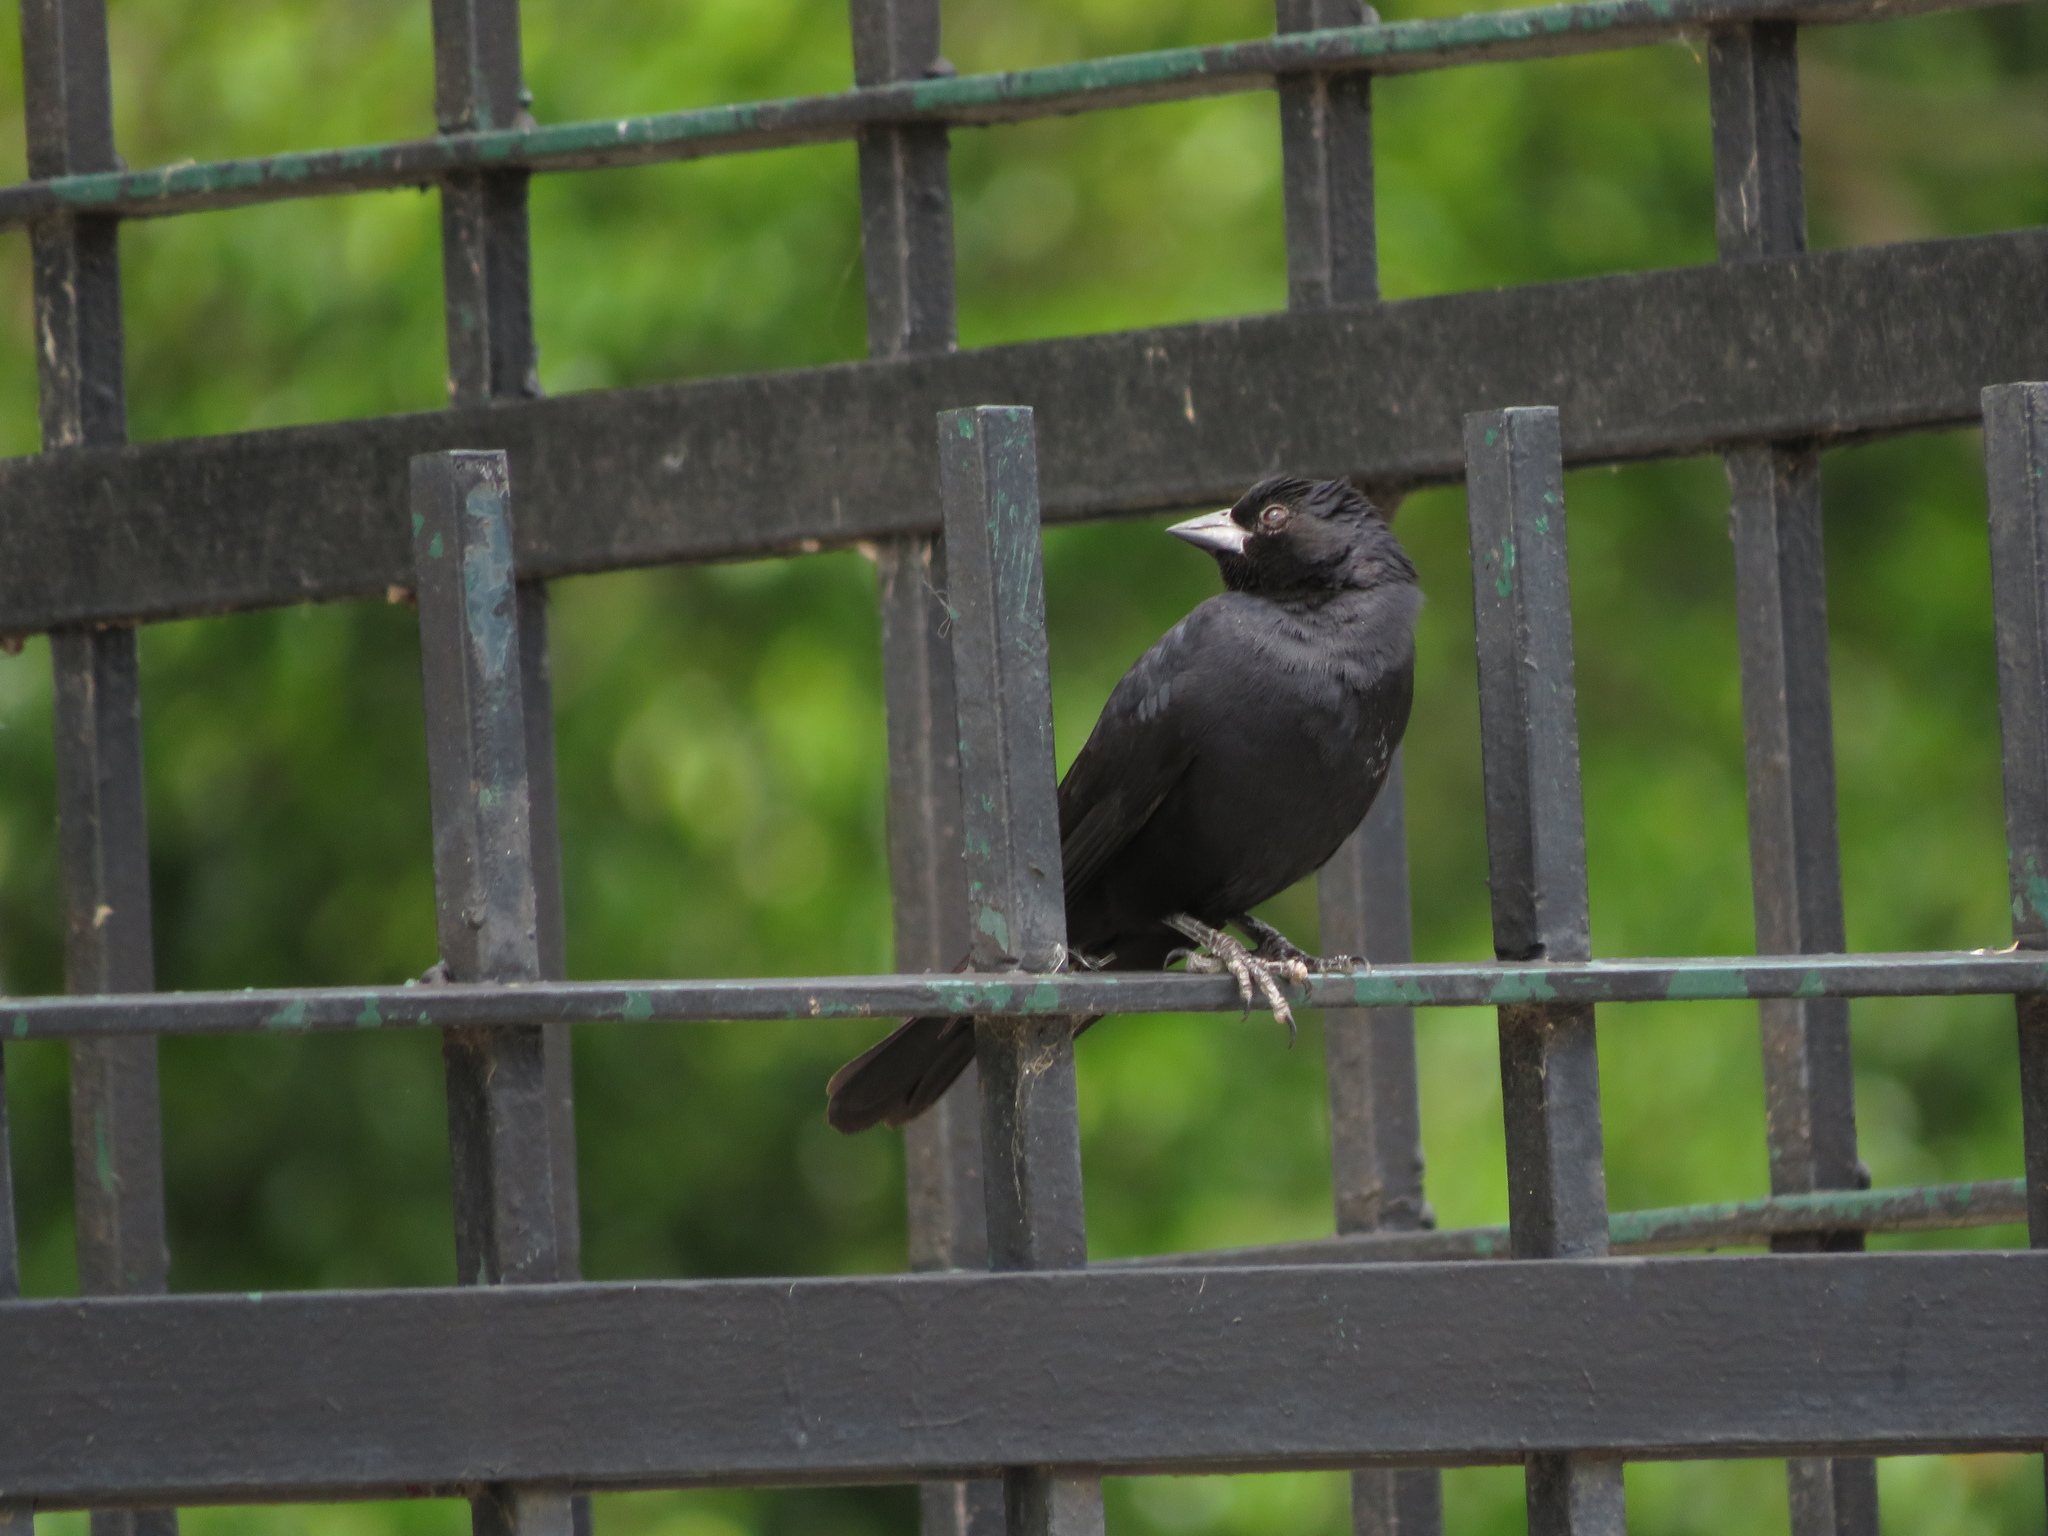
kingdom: Animalia
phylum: Chordata
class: Aves
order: Passeriformes
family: Icteridae
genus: Molothrus
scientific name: Molothrus rufoaxillaris
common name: Screaming cowbird
